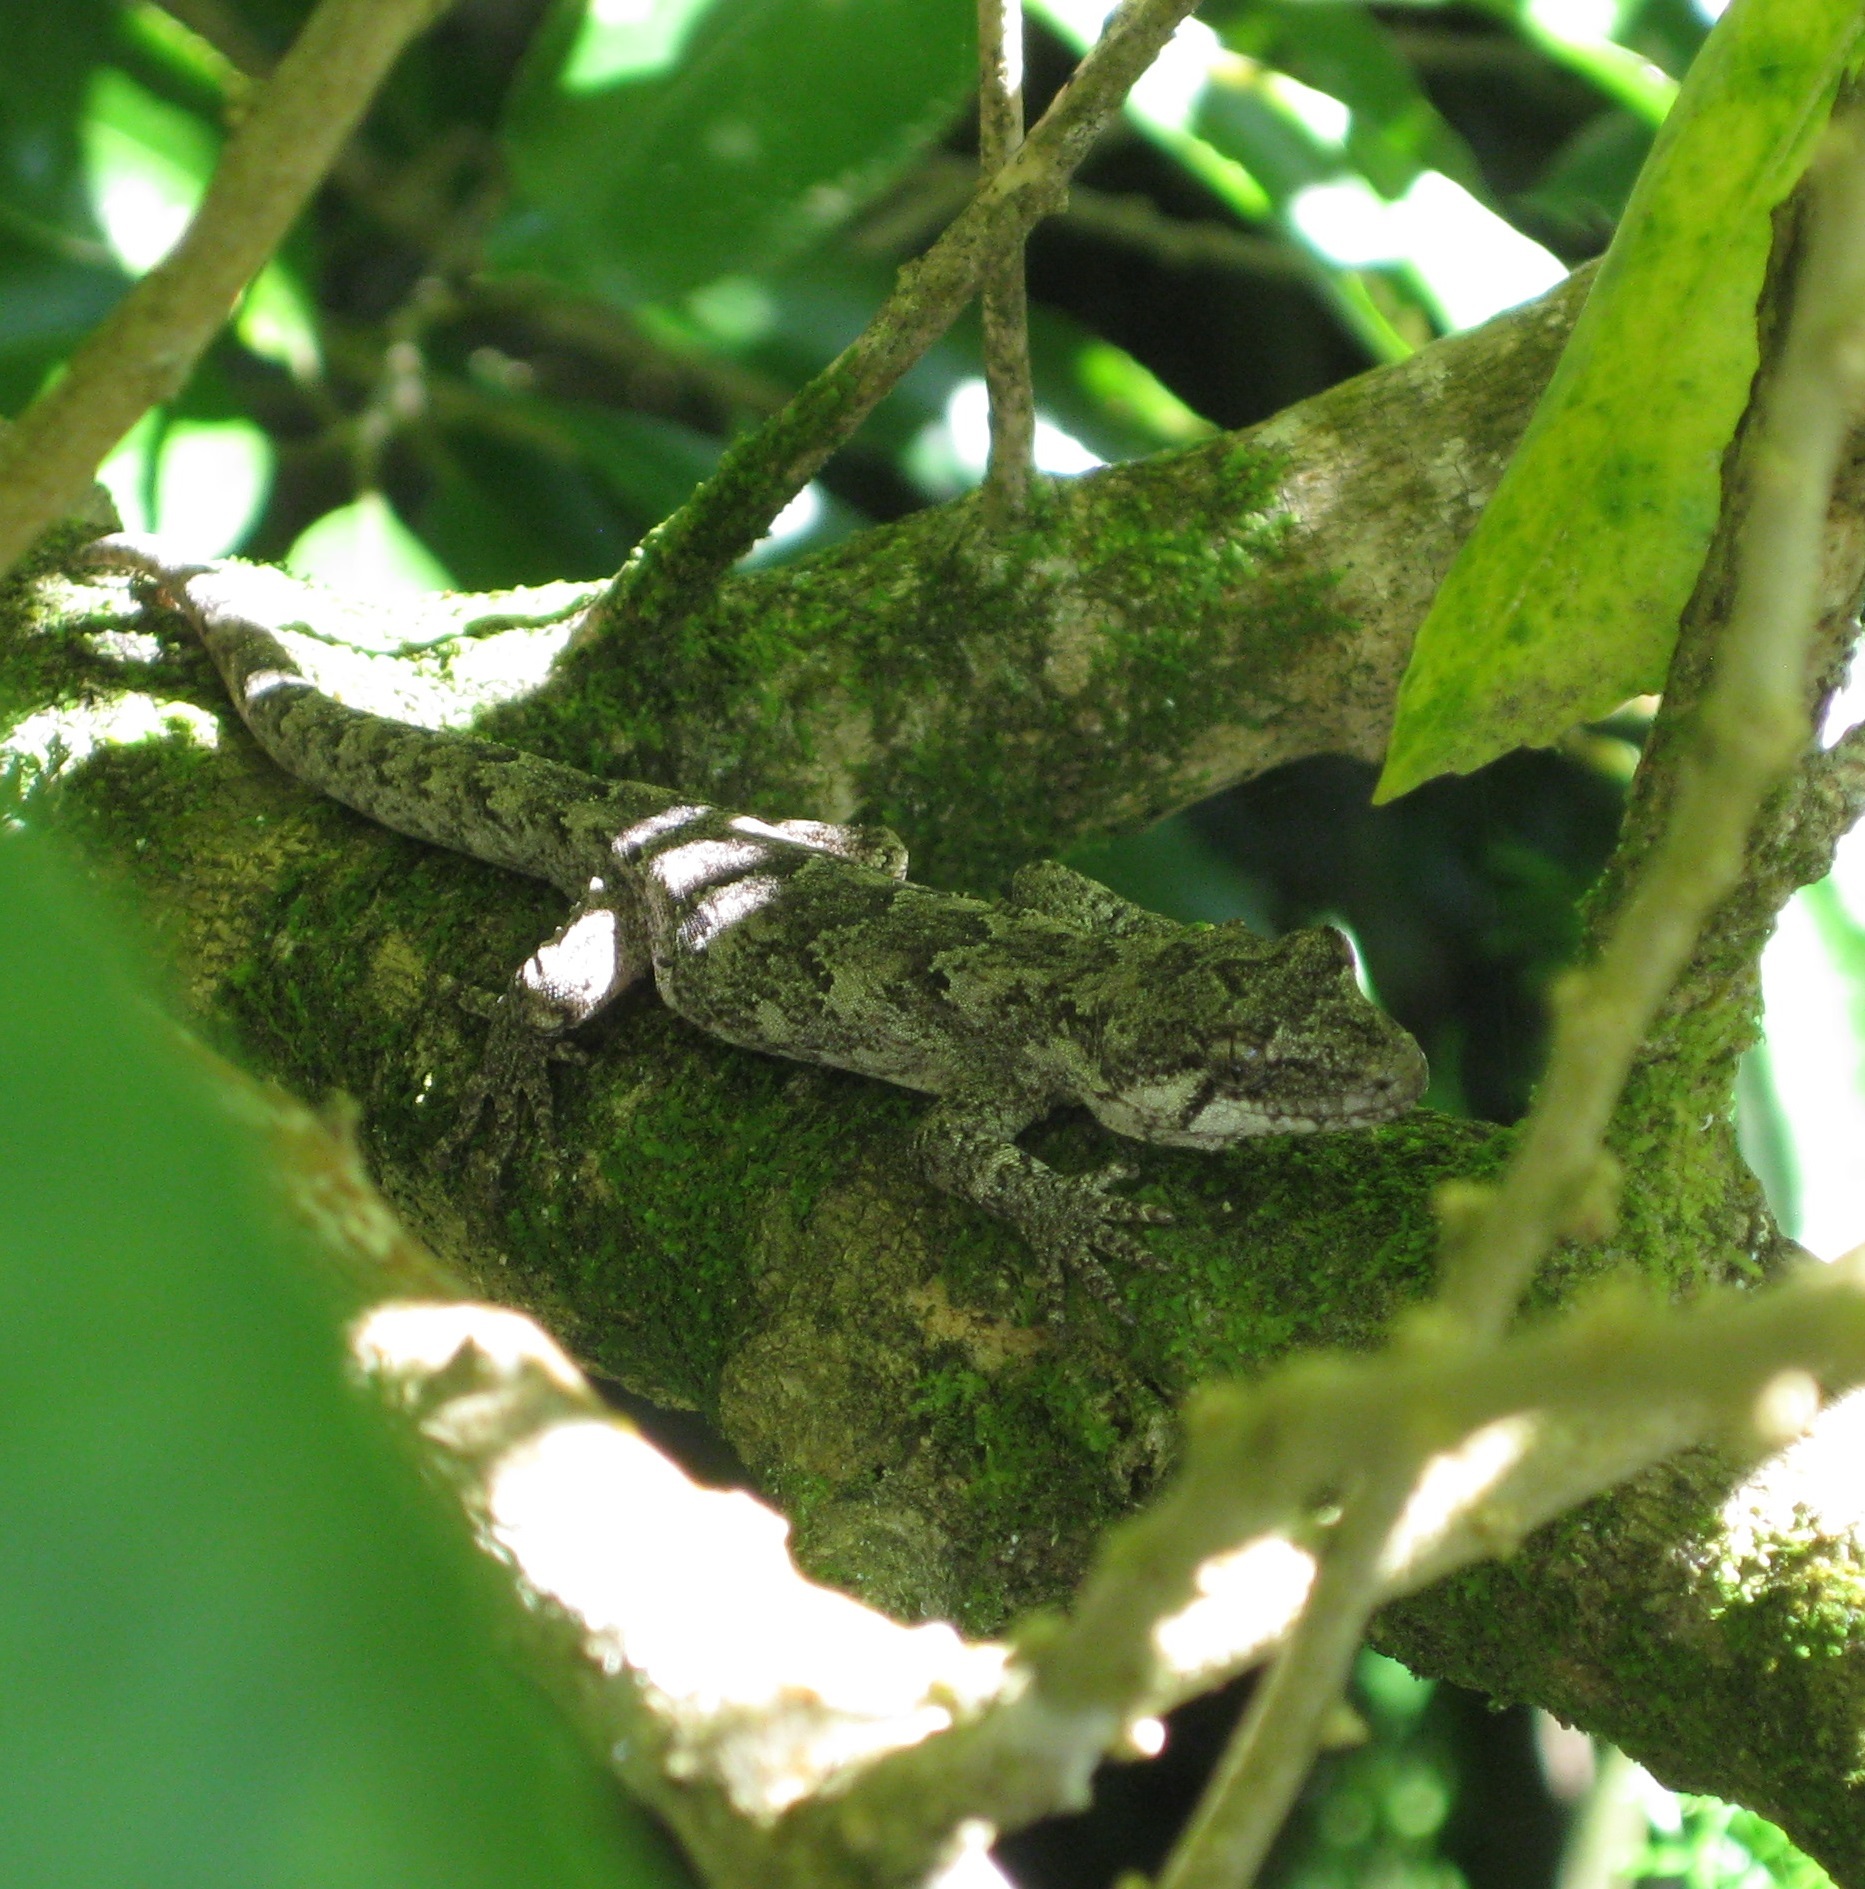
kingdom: Animalia
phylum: Chordata
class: Squamata
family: Diplodactylidae
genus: Mokopirirakau
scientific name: Mokopirirakau
